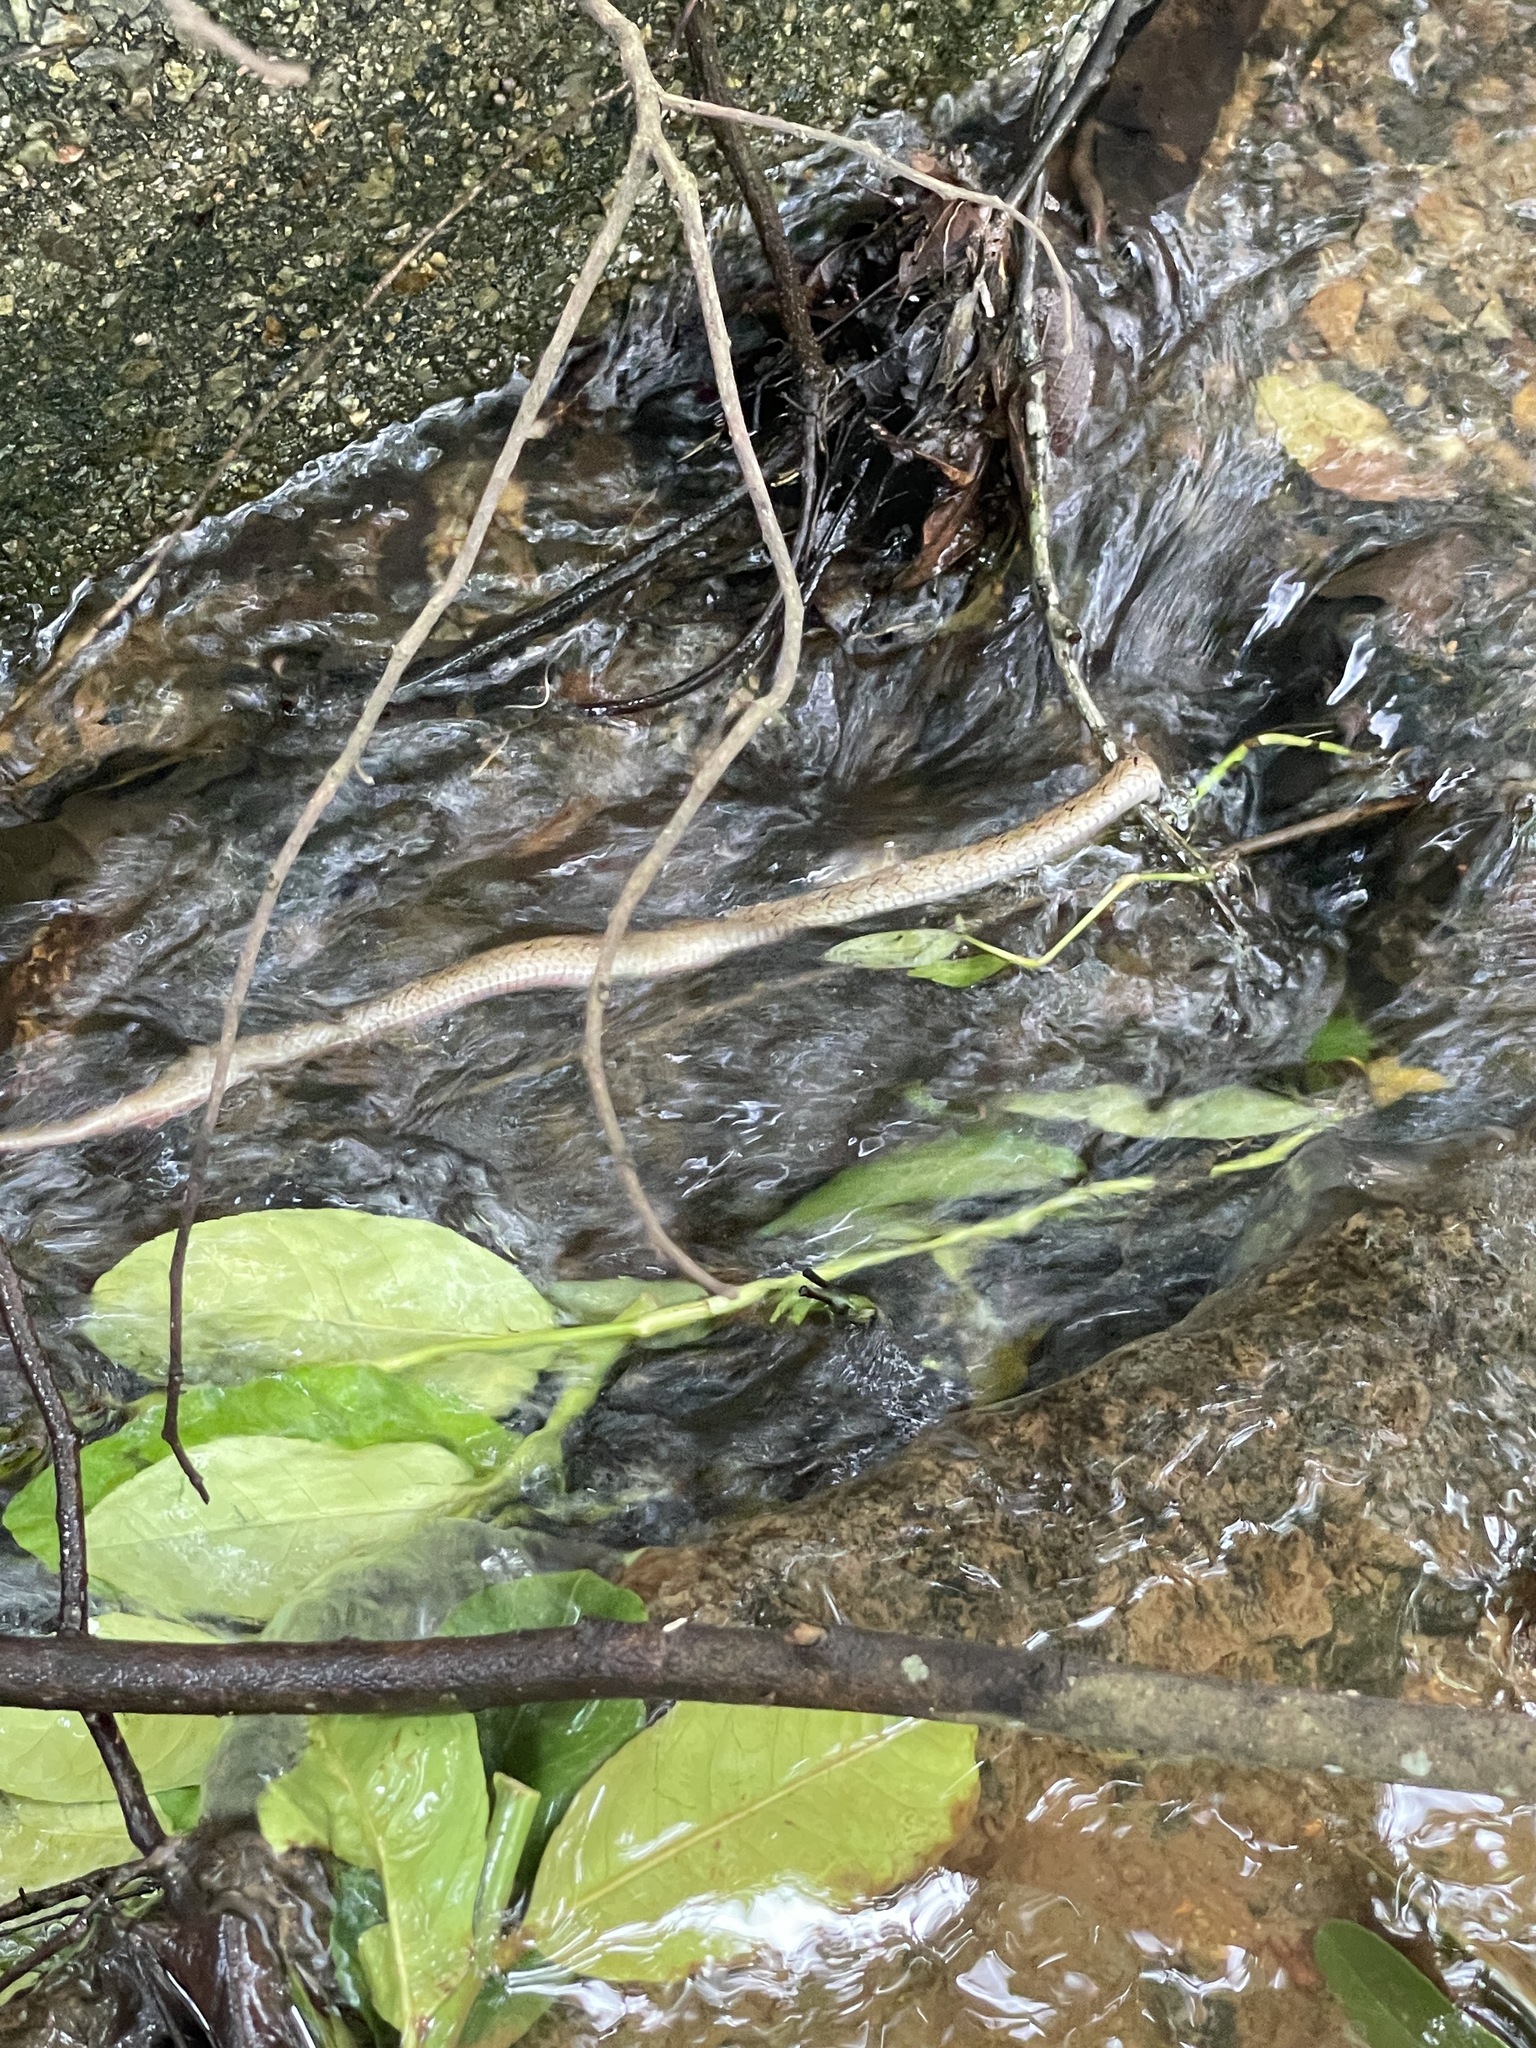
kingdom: Animalia
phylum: Chordata
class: Squamata
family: Colubridae
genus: Oligodon
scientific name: Oligodon formosanus
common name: Formosa kukri snake
